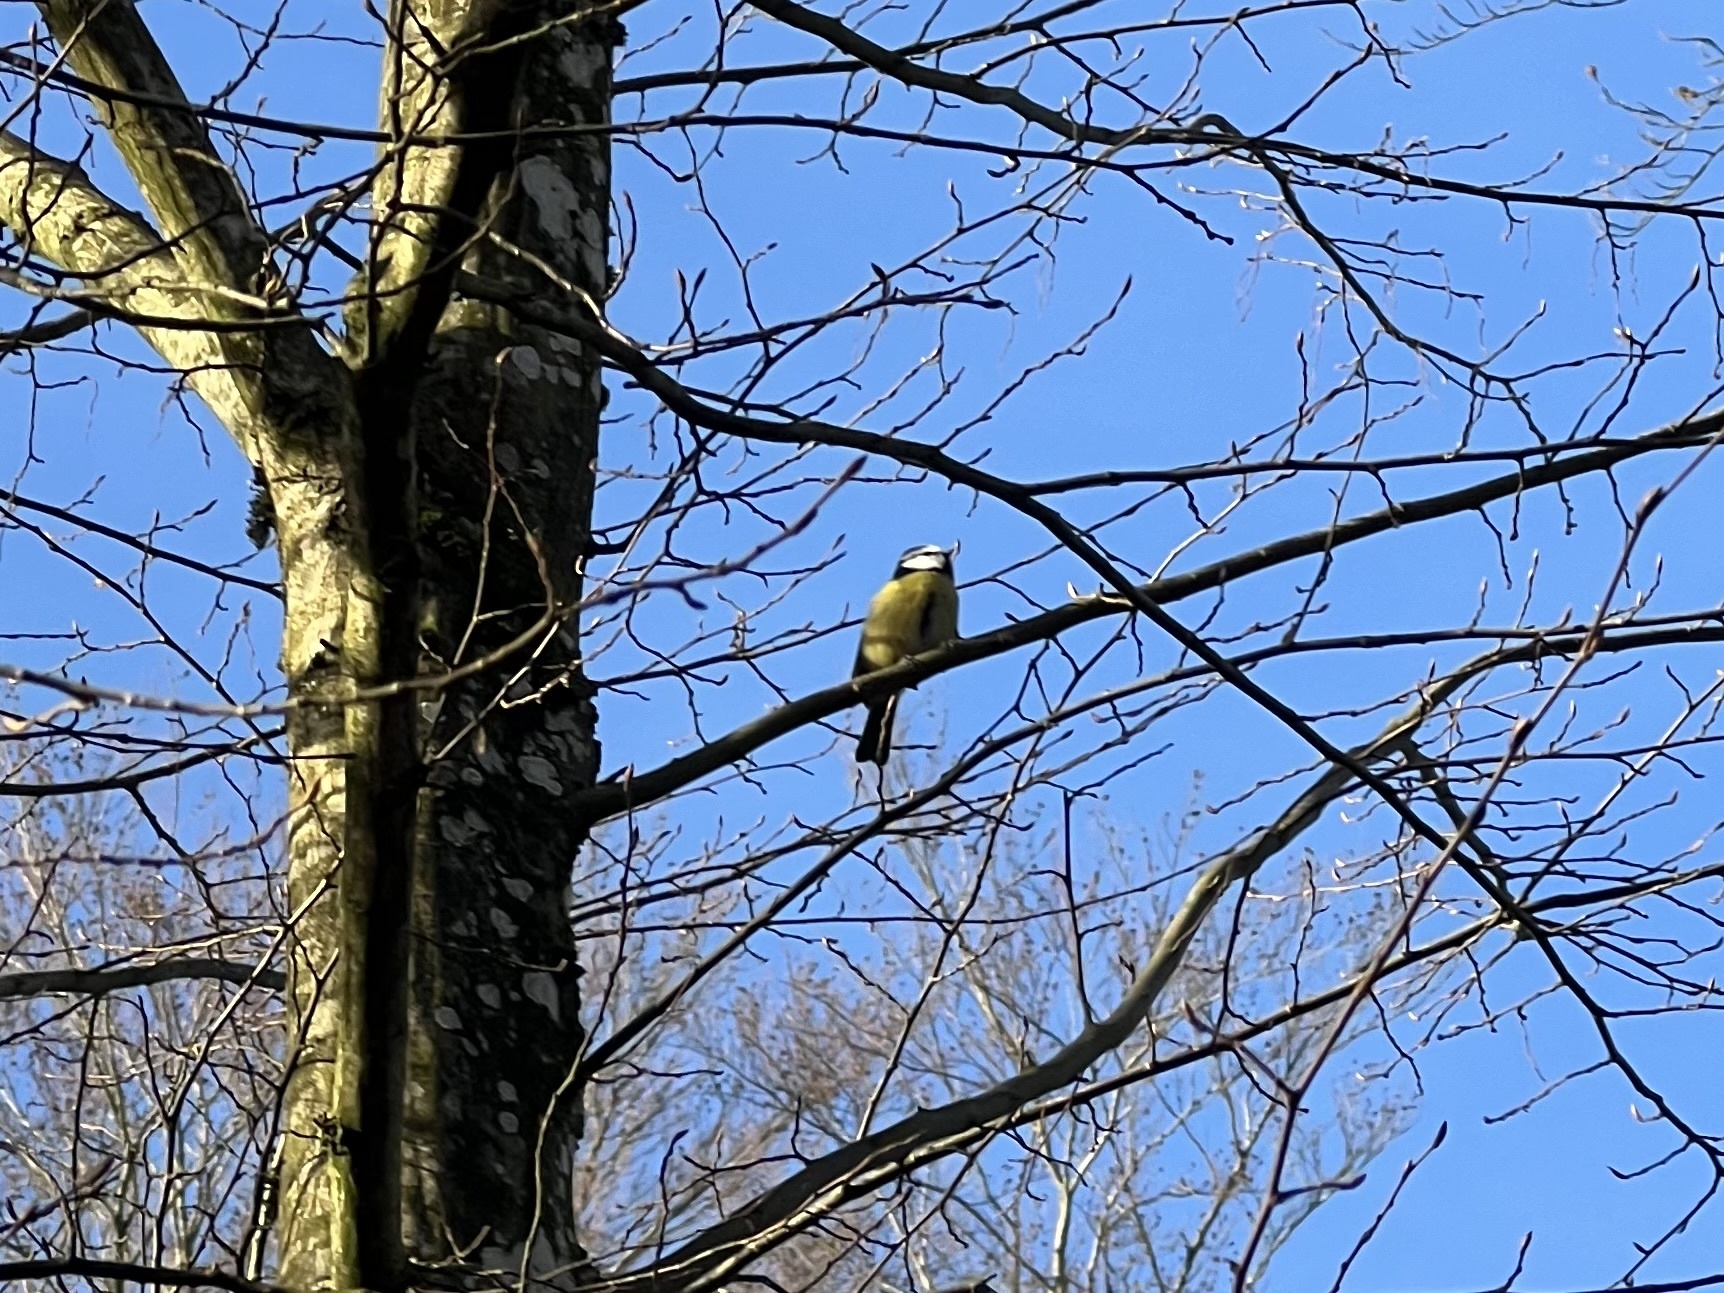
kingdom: Animalia
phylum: Chordata
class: Aves
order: Passeriformes
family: Paridae
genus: Cyanistes
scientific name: Cyanistes caeruleus
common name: Eurasian blue tit
